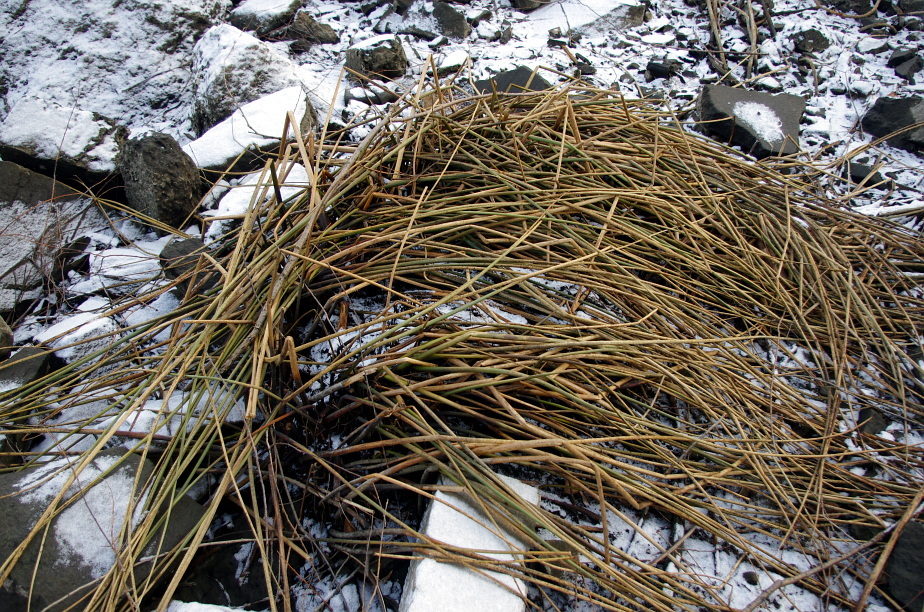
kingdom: Plantae
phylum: Tracheophyta
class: Liliopsida
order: Poales
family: Juncaceae
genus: Juncus
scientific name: Juncus effusus
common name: Soft rush
